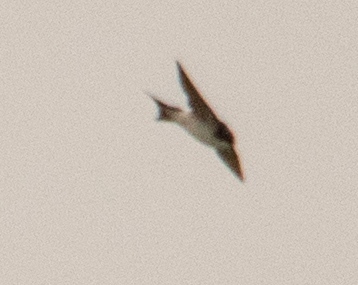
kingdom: Animalia
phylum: Chordata
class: Aves
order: Passeriformes
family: Hirundinidae
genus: Delichon
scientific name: Delichon urbicum
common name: Common house martin
